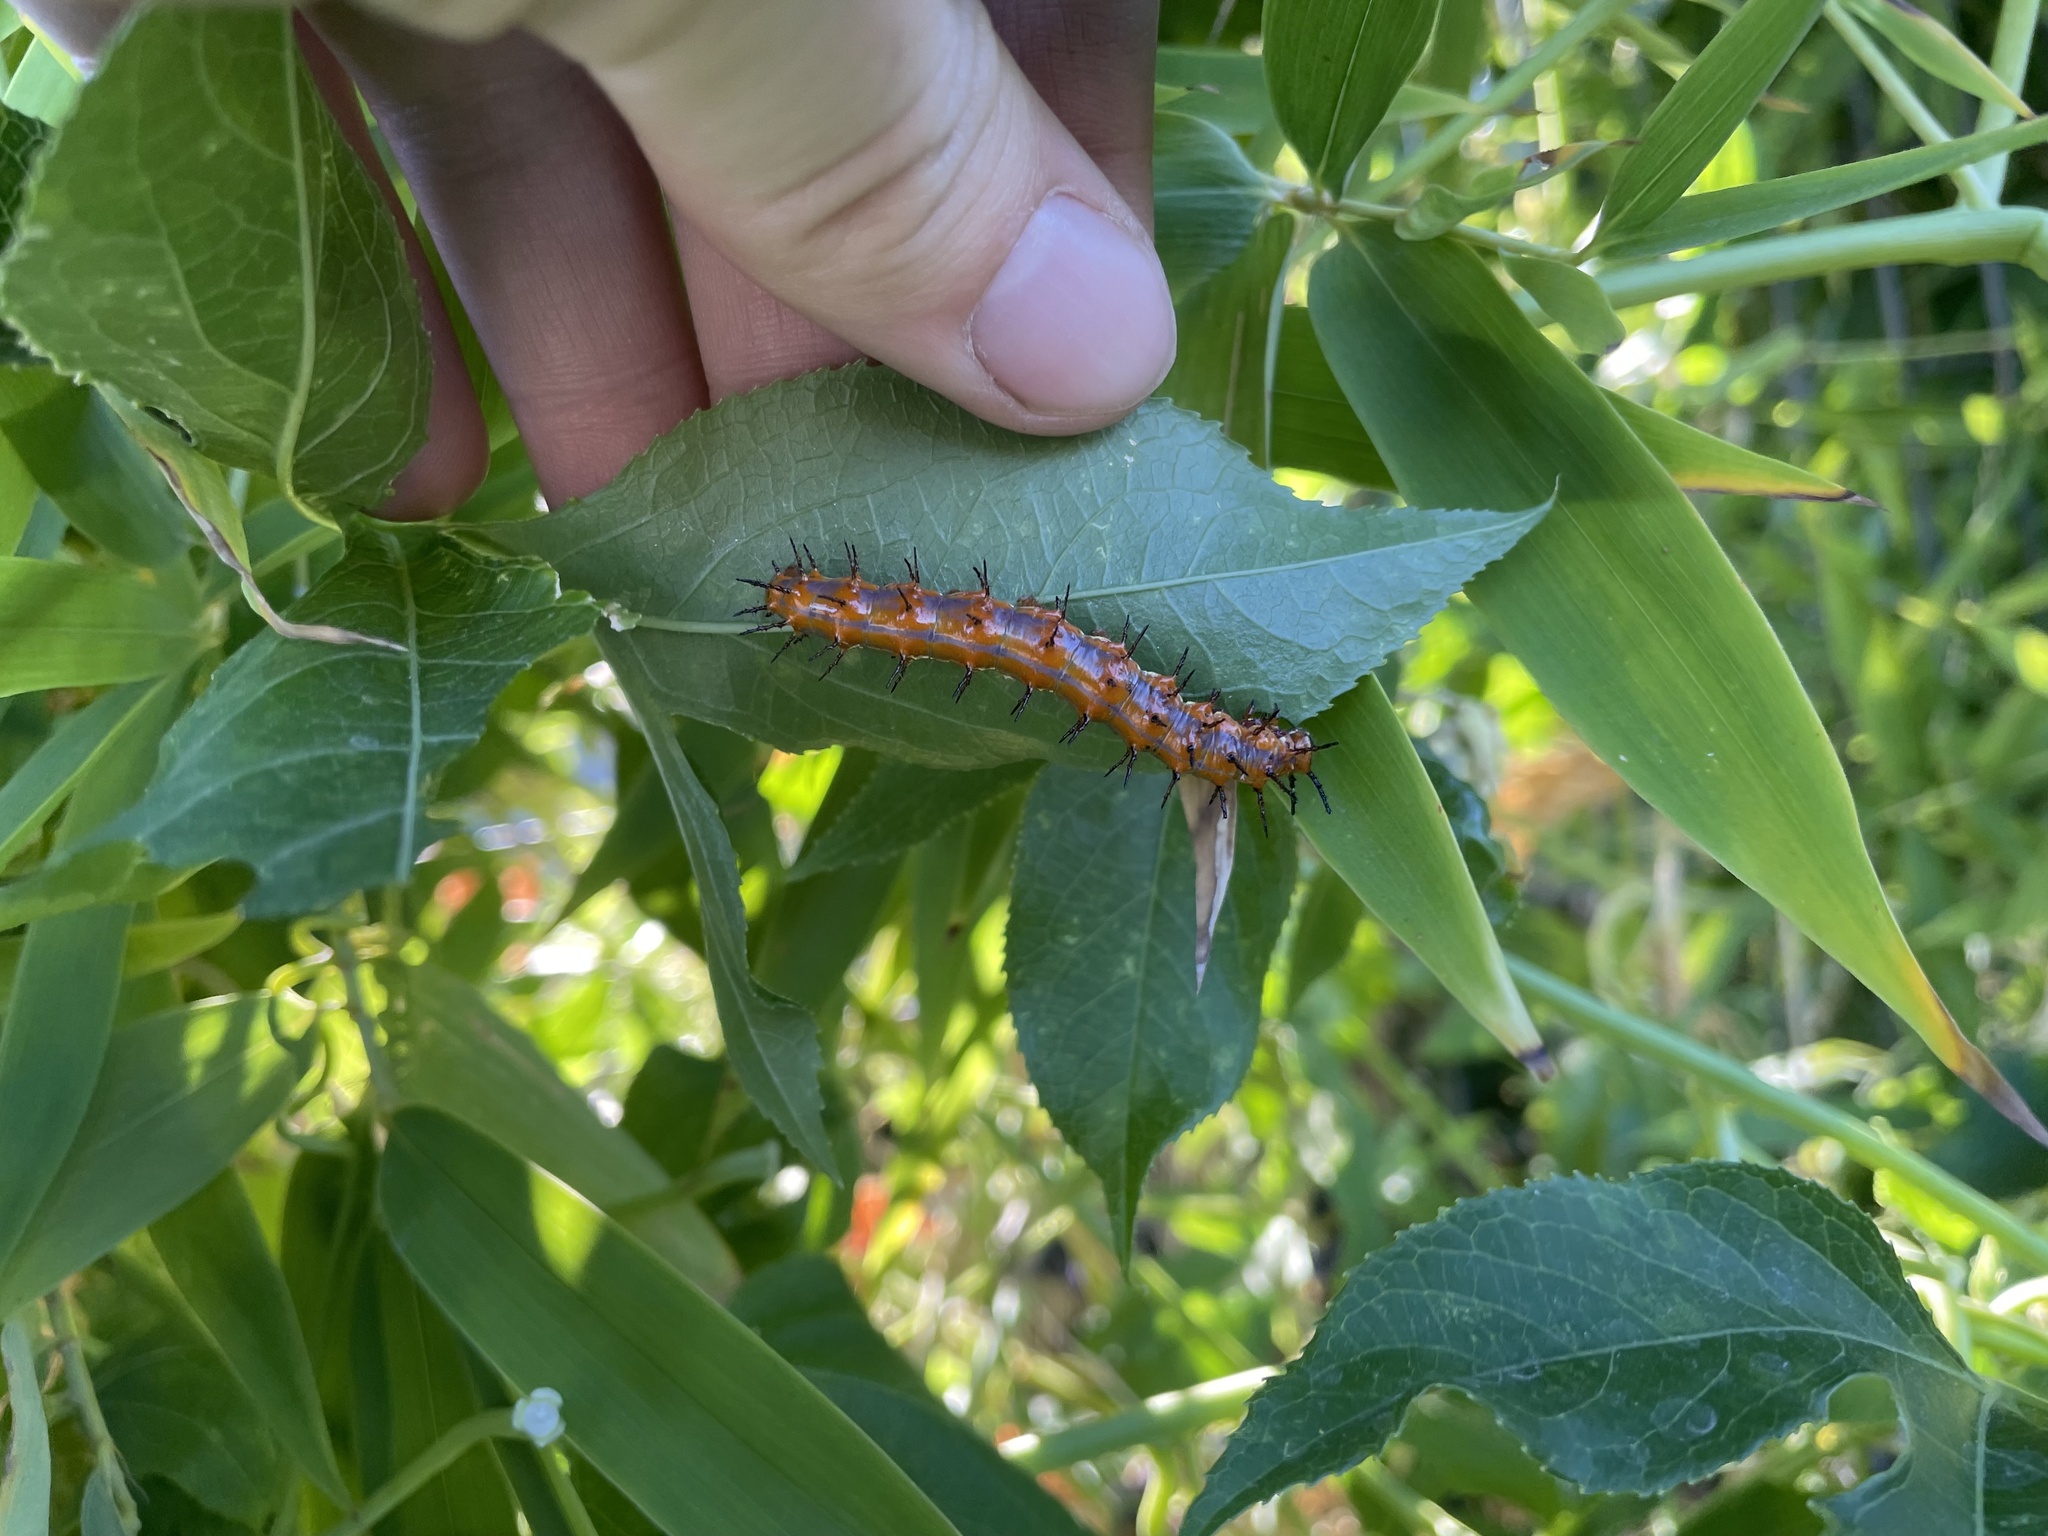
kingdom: Animalia
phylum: Arthropoda
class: Insecta
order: Lepidoptera
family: Nymphalidae
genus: Dione
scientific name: Dione vanillae
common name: Gulf fritillary
